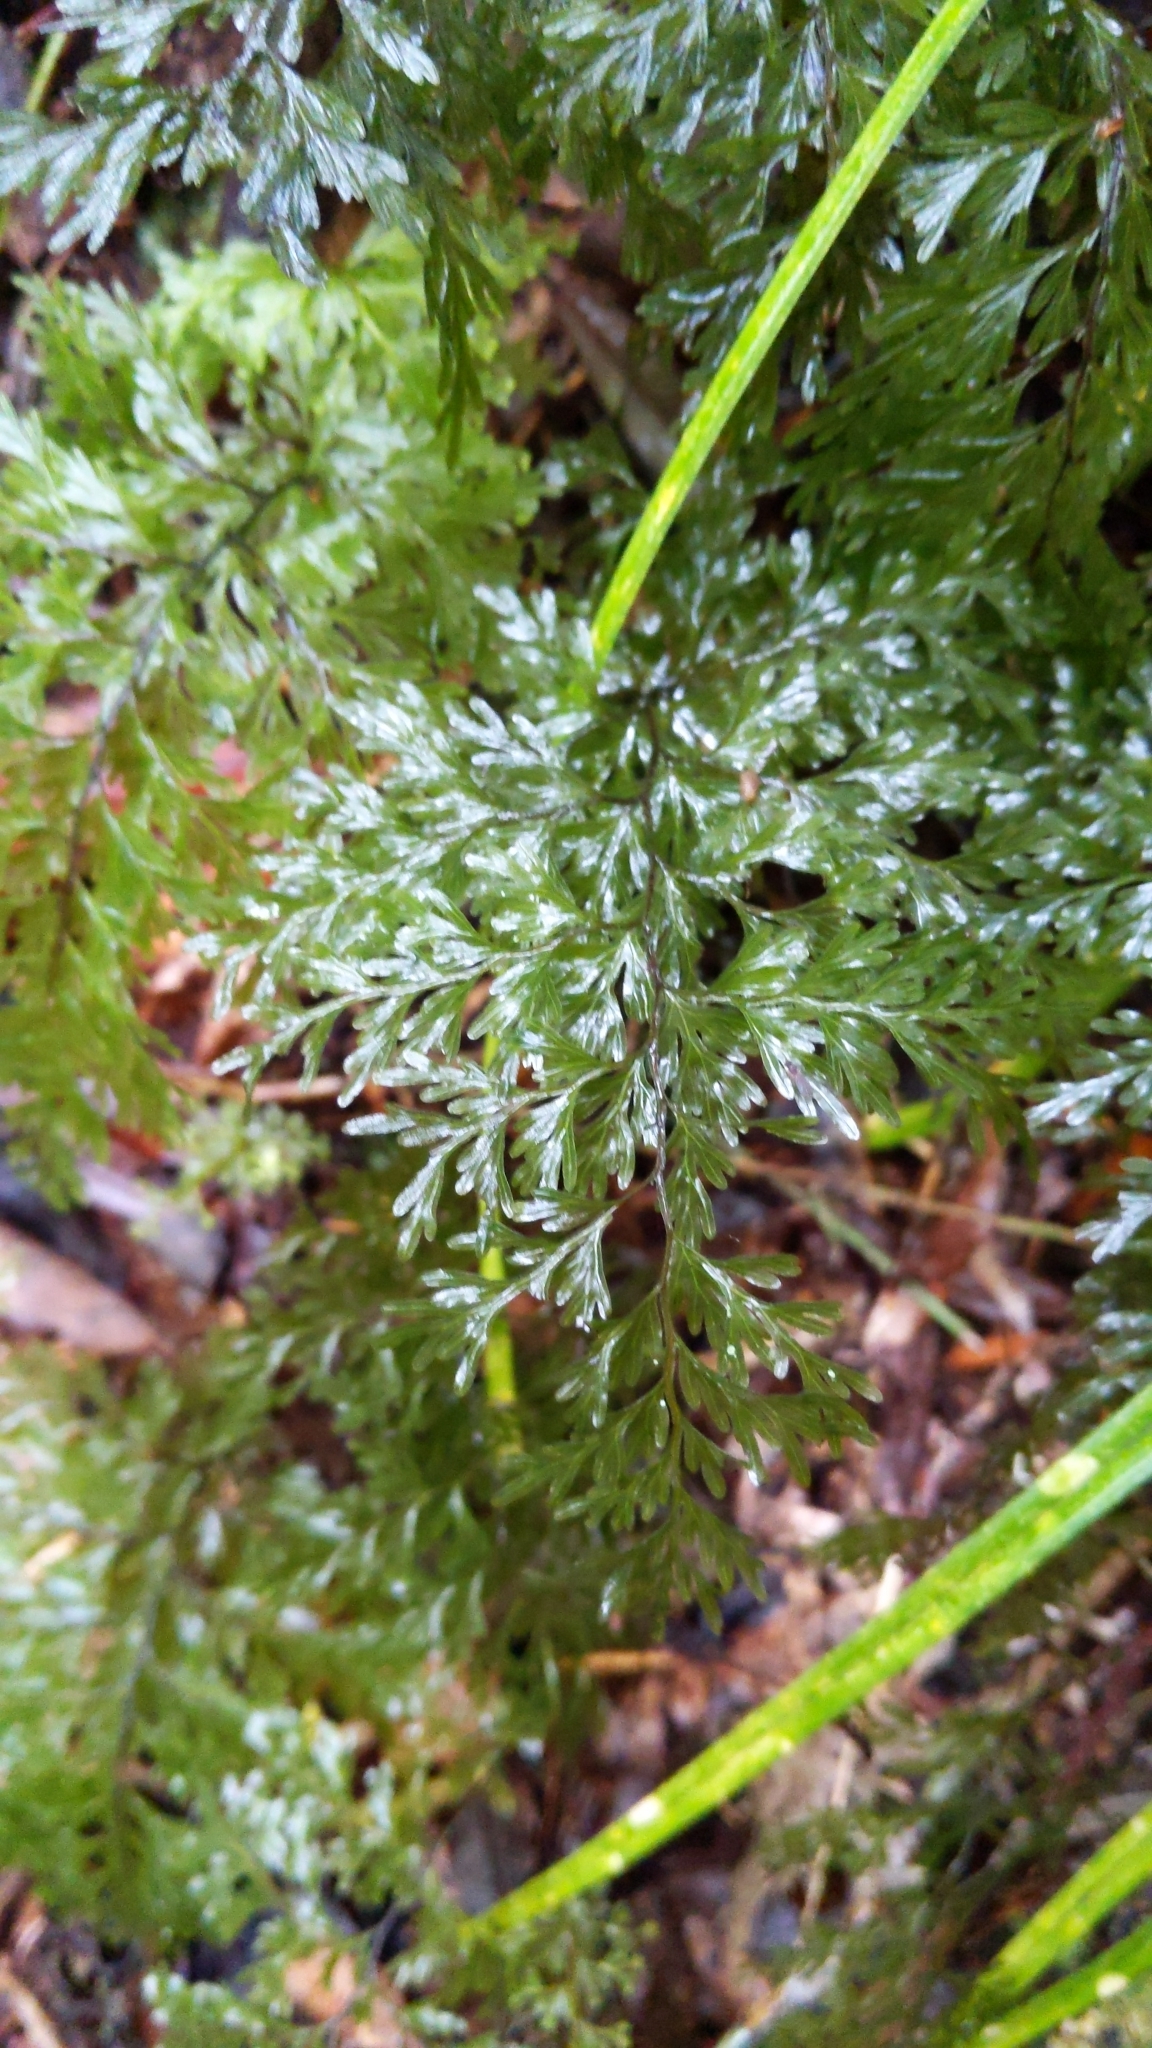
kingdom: Plantae
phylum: Tracheophyta
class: Polypodiopsida
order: Hymenophyllales
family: Hymenophyllaceae
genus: Hymenophyllum
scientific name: Hymenophyllum demissum
